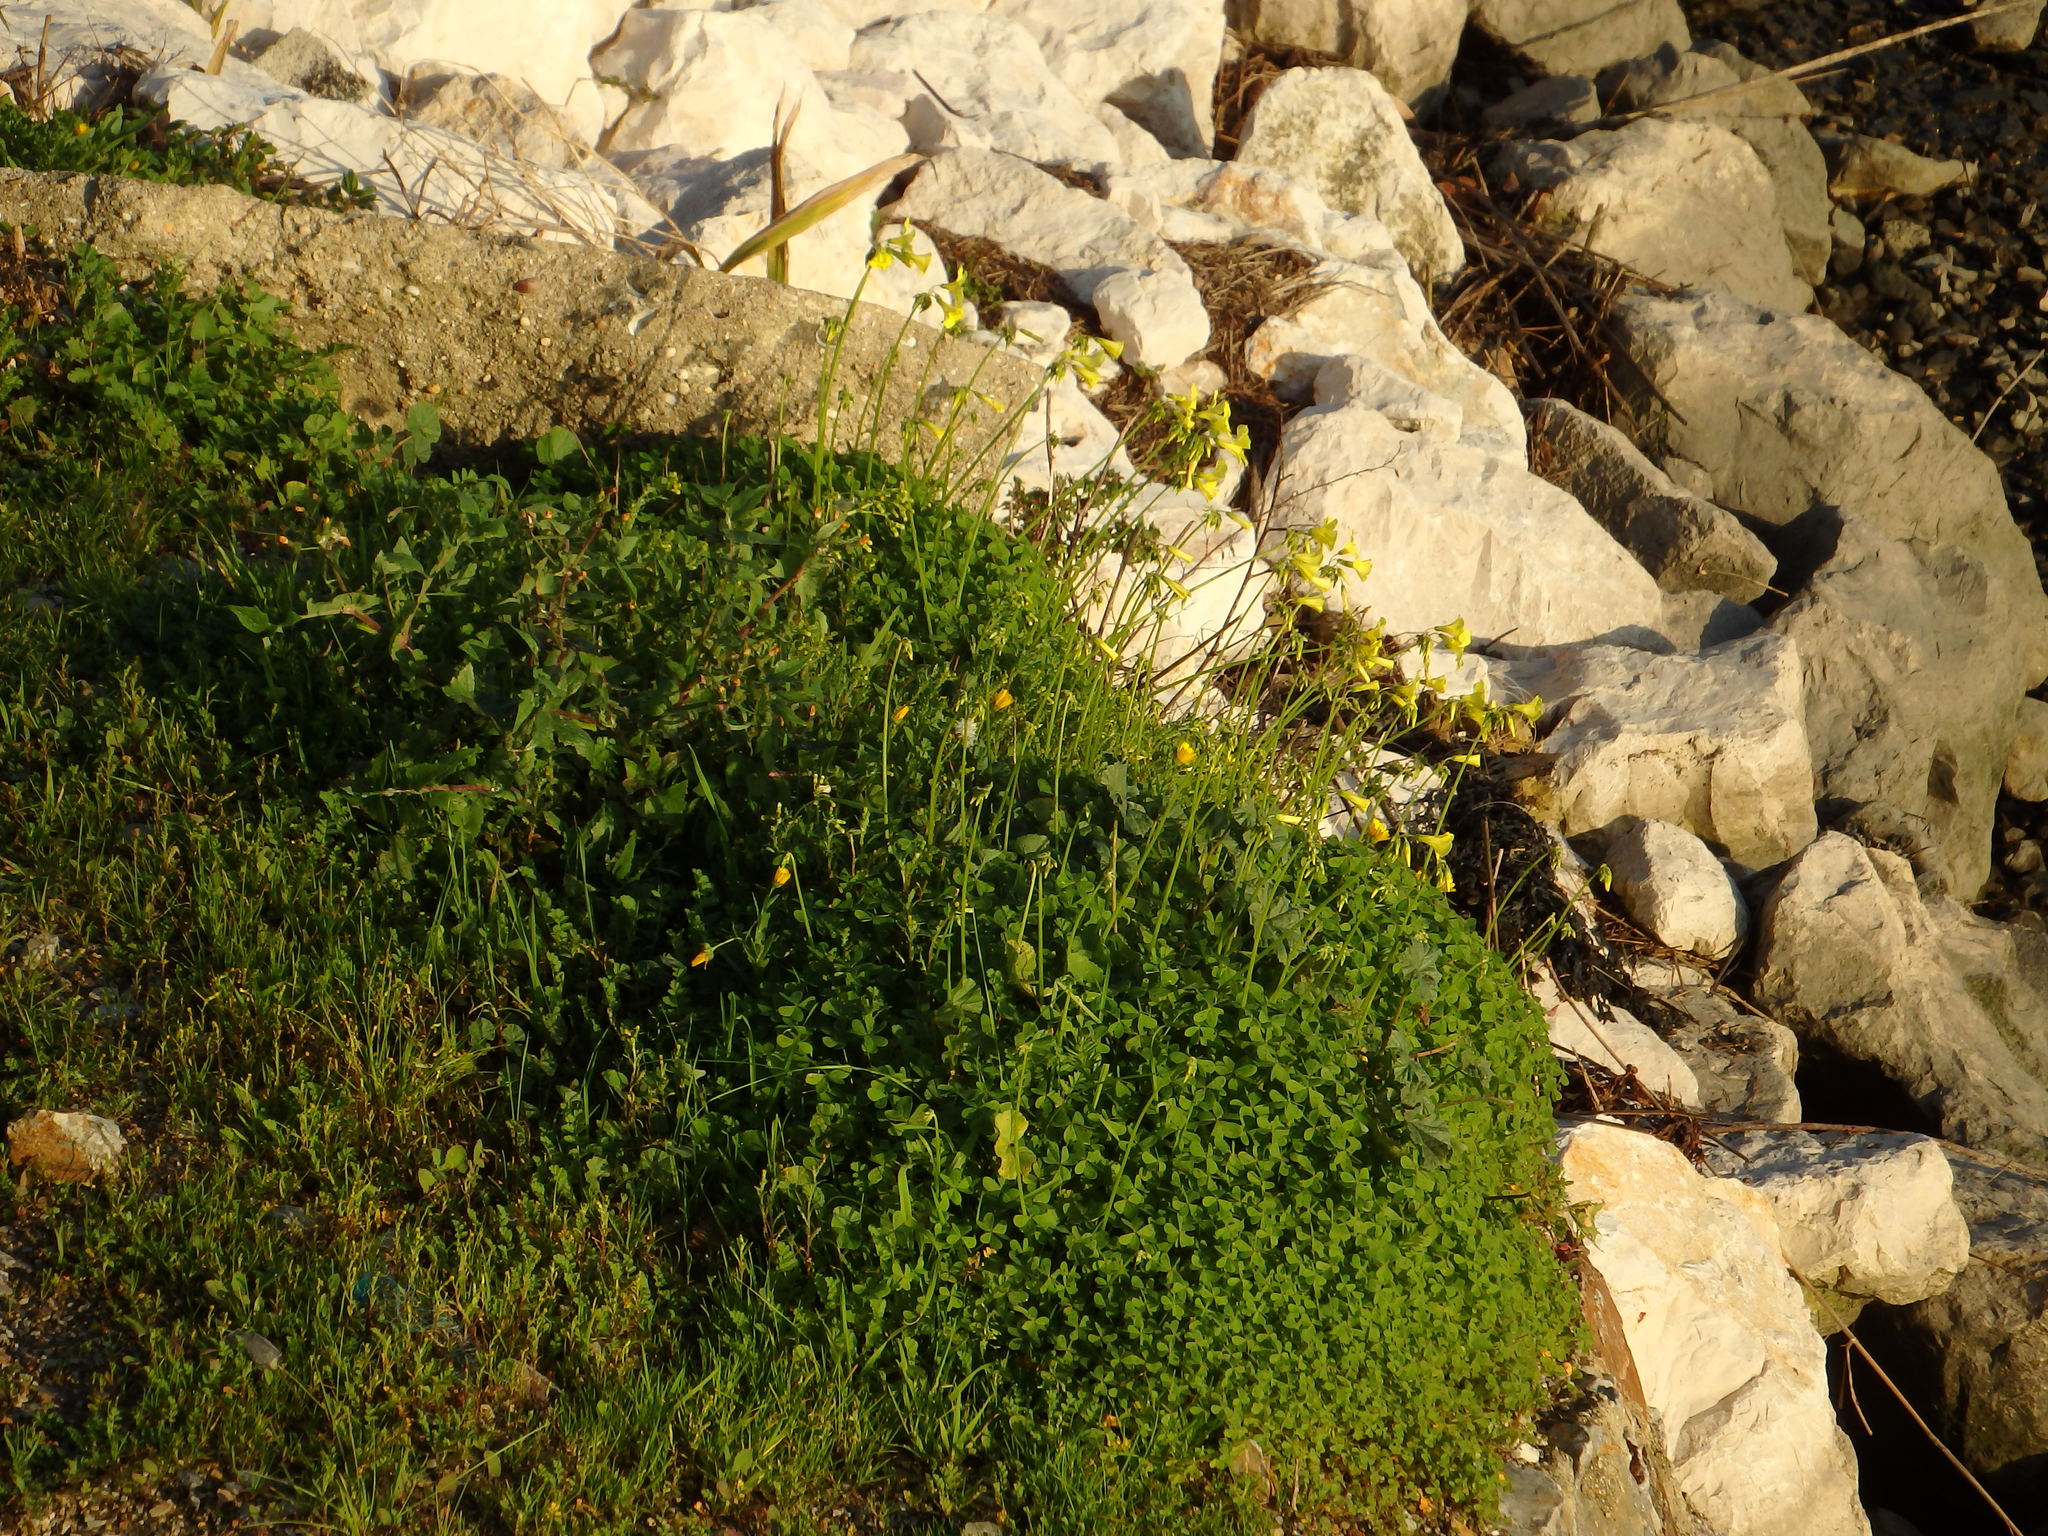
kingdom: Plantae
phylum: Tracheophyta
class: Magnoliopsida
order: Oxalidales
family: Oxalidaceae
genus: Oxalis
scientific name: Oxalis pes-caprae
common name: Bermuda-buttercup
